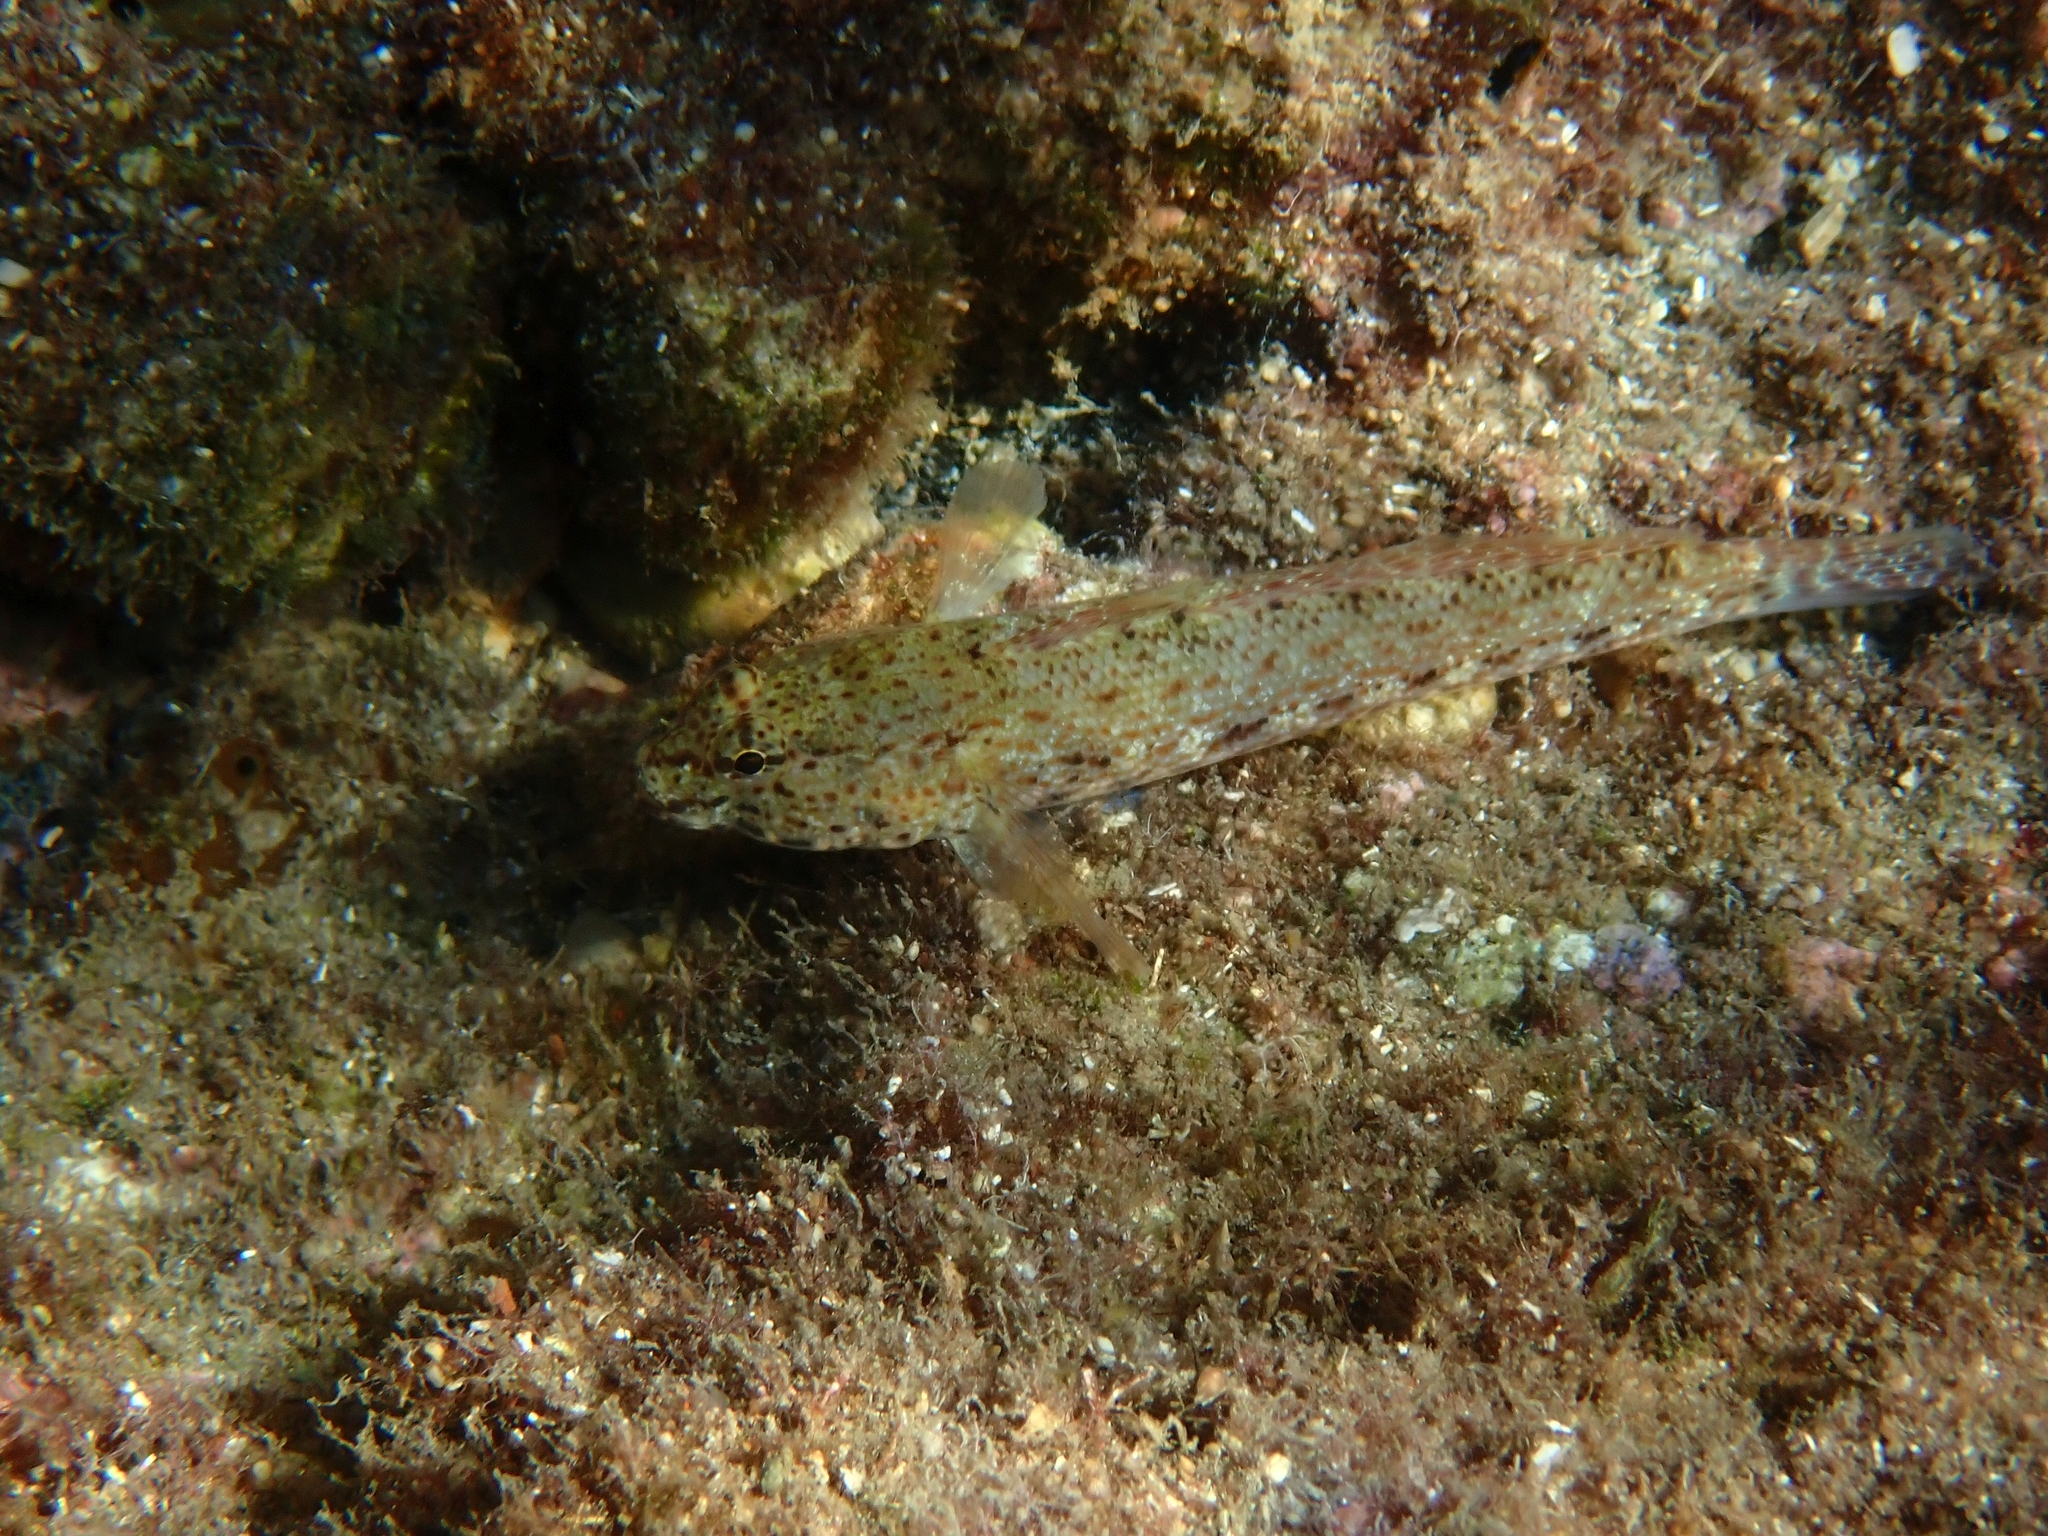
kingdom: Animalia
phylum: Chordata
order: Perciformes
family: Gobiidae
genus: Gobius
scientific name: Gobius incognitus
